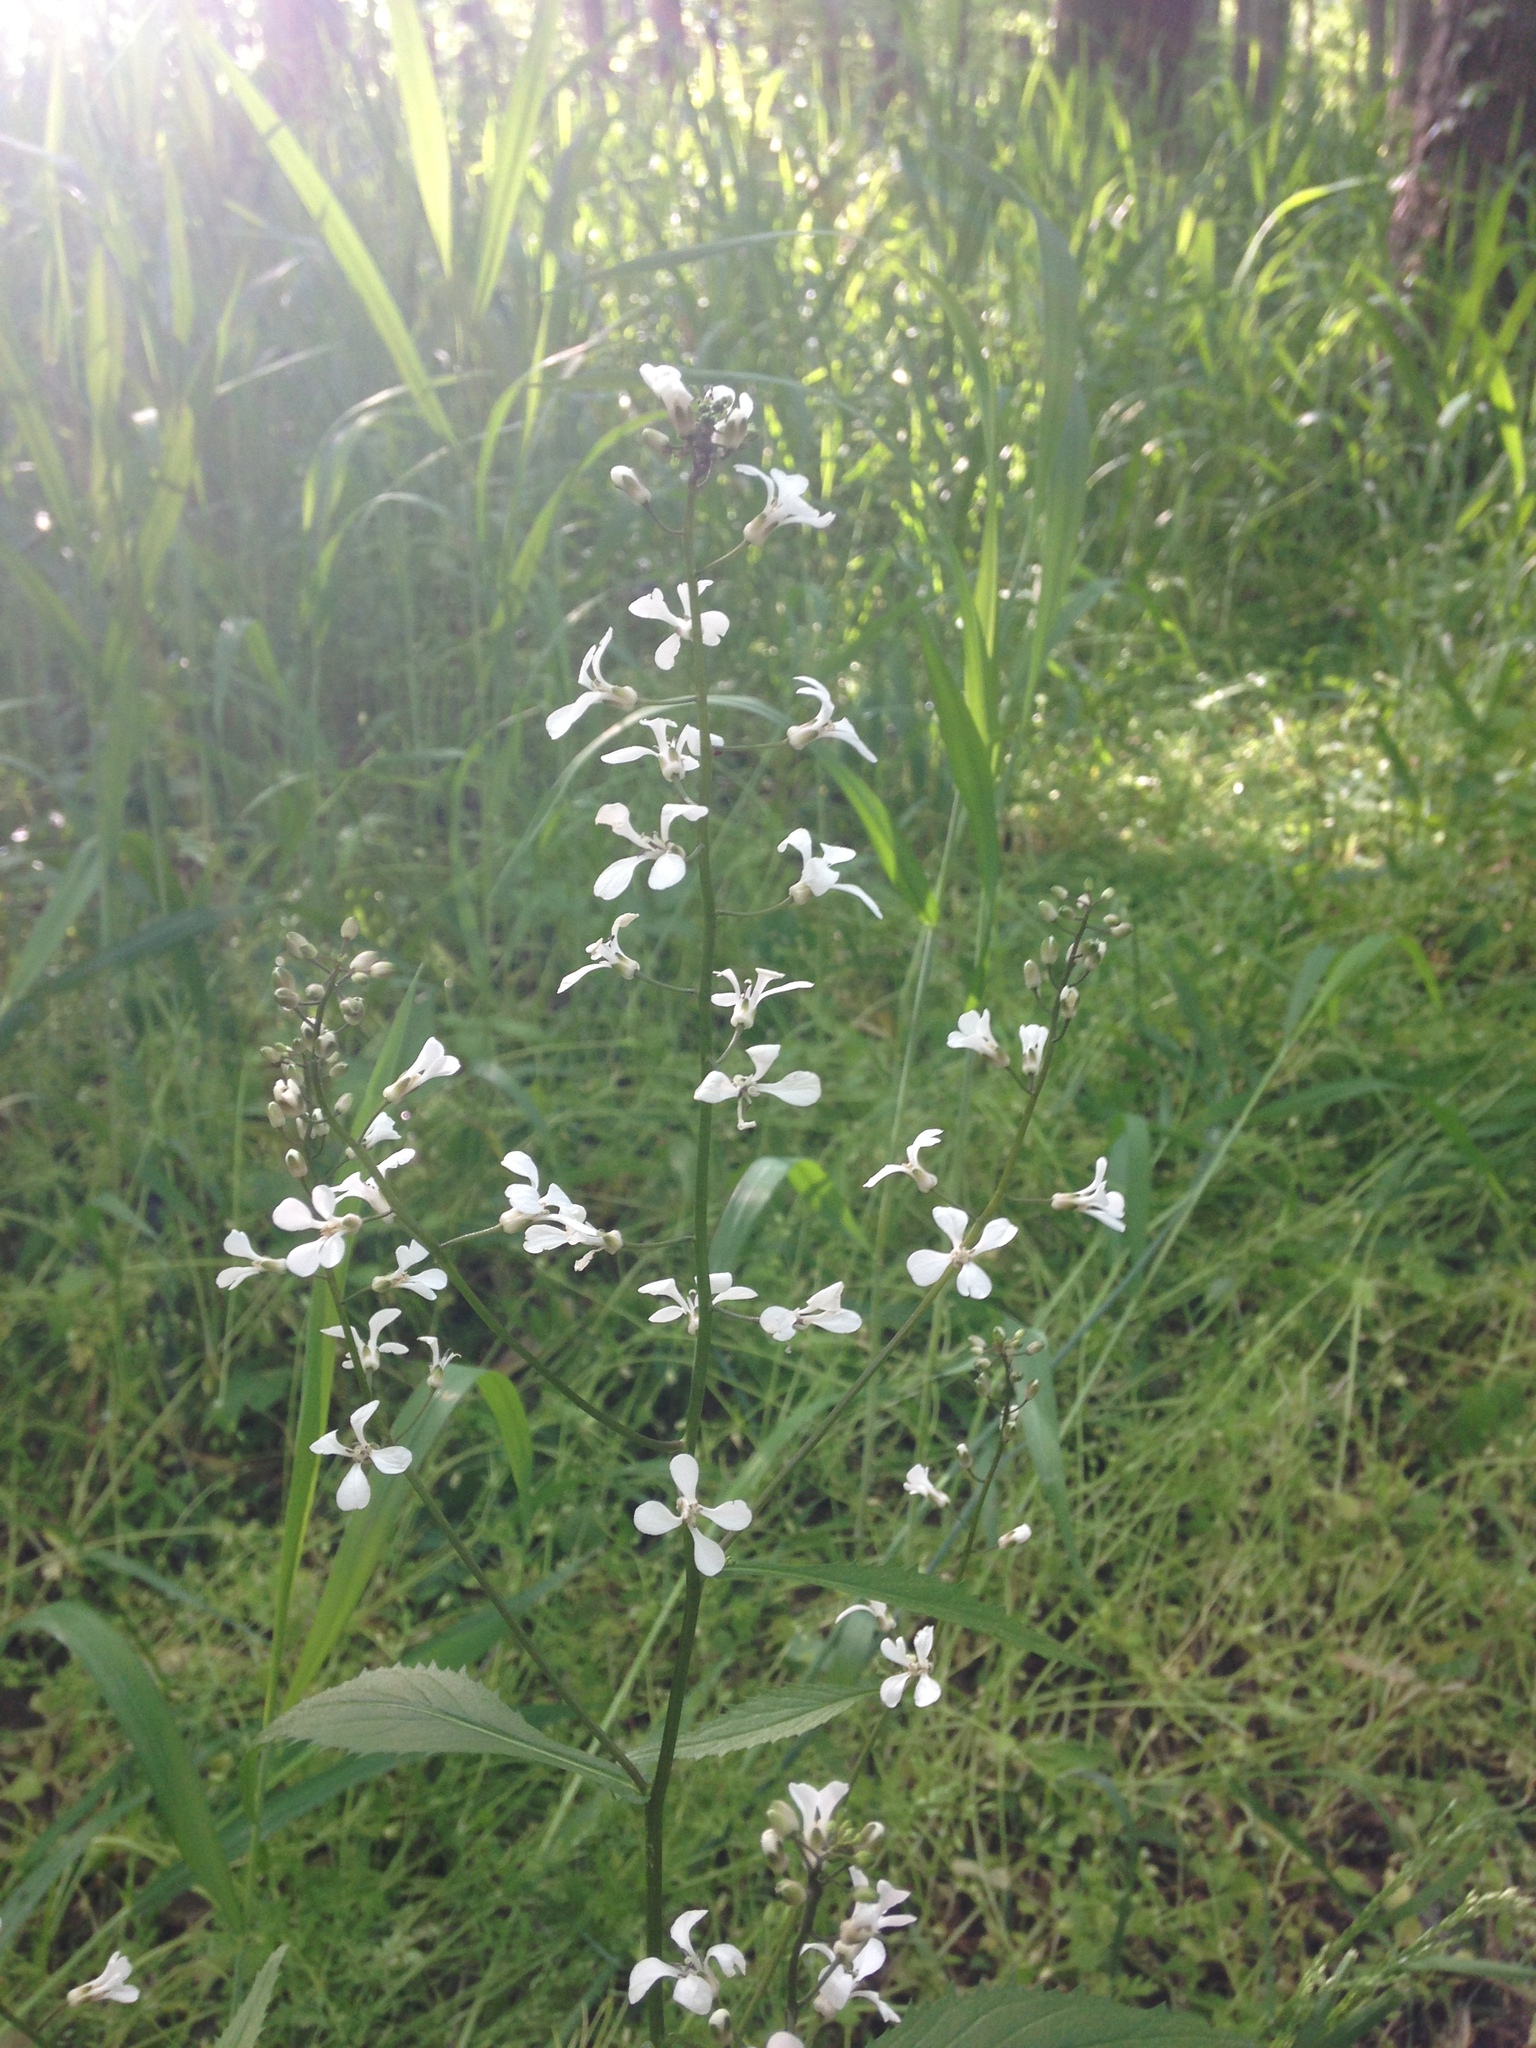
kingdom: Plantae
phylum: Tracheophyta
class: Magnoliopsida
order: Brassicales
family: Brassicaceae
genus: Iodanthus
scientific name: Iodanthus pinnatifidus
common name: Violet rocket
